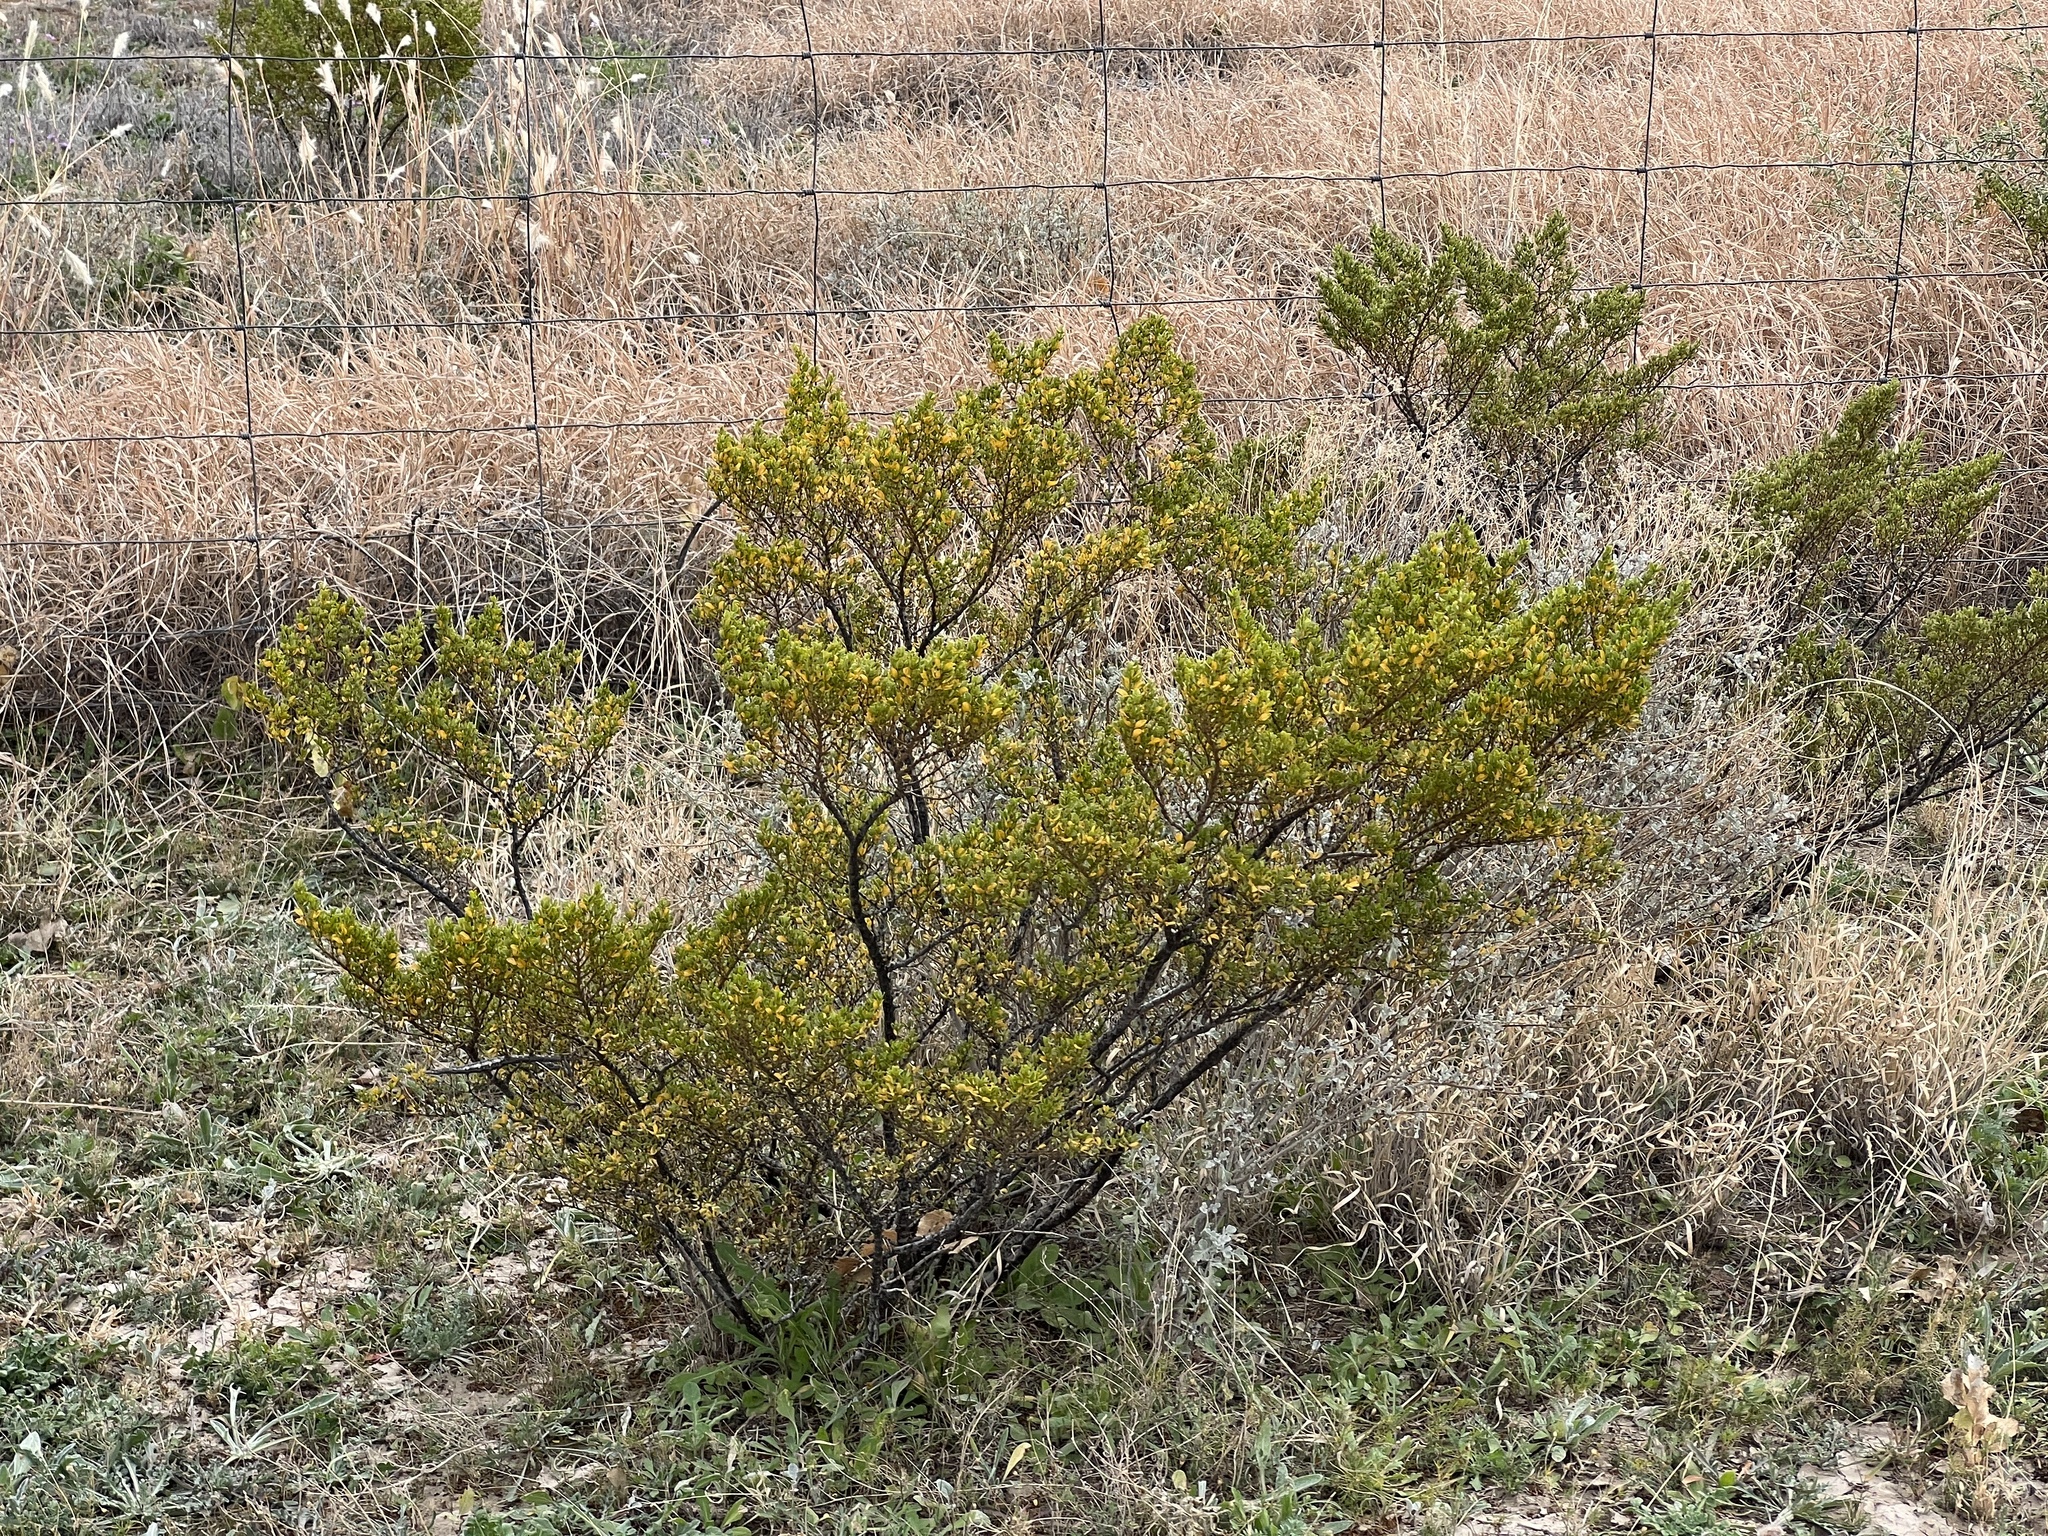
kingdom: Plantae
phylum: Tracheophyta
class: Magnoliopsida
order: Zygophyllales
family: Zygophyllaceae
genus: Larrea
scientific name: Larrea tridentata
